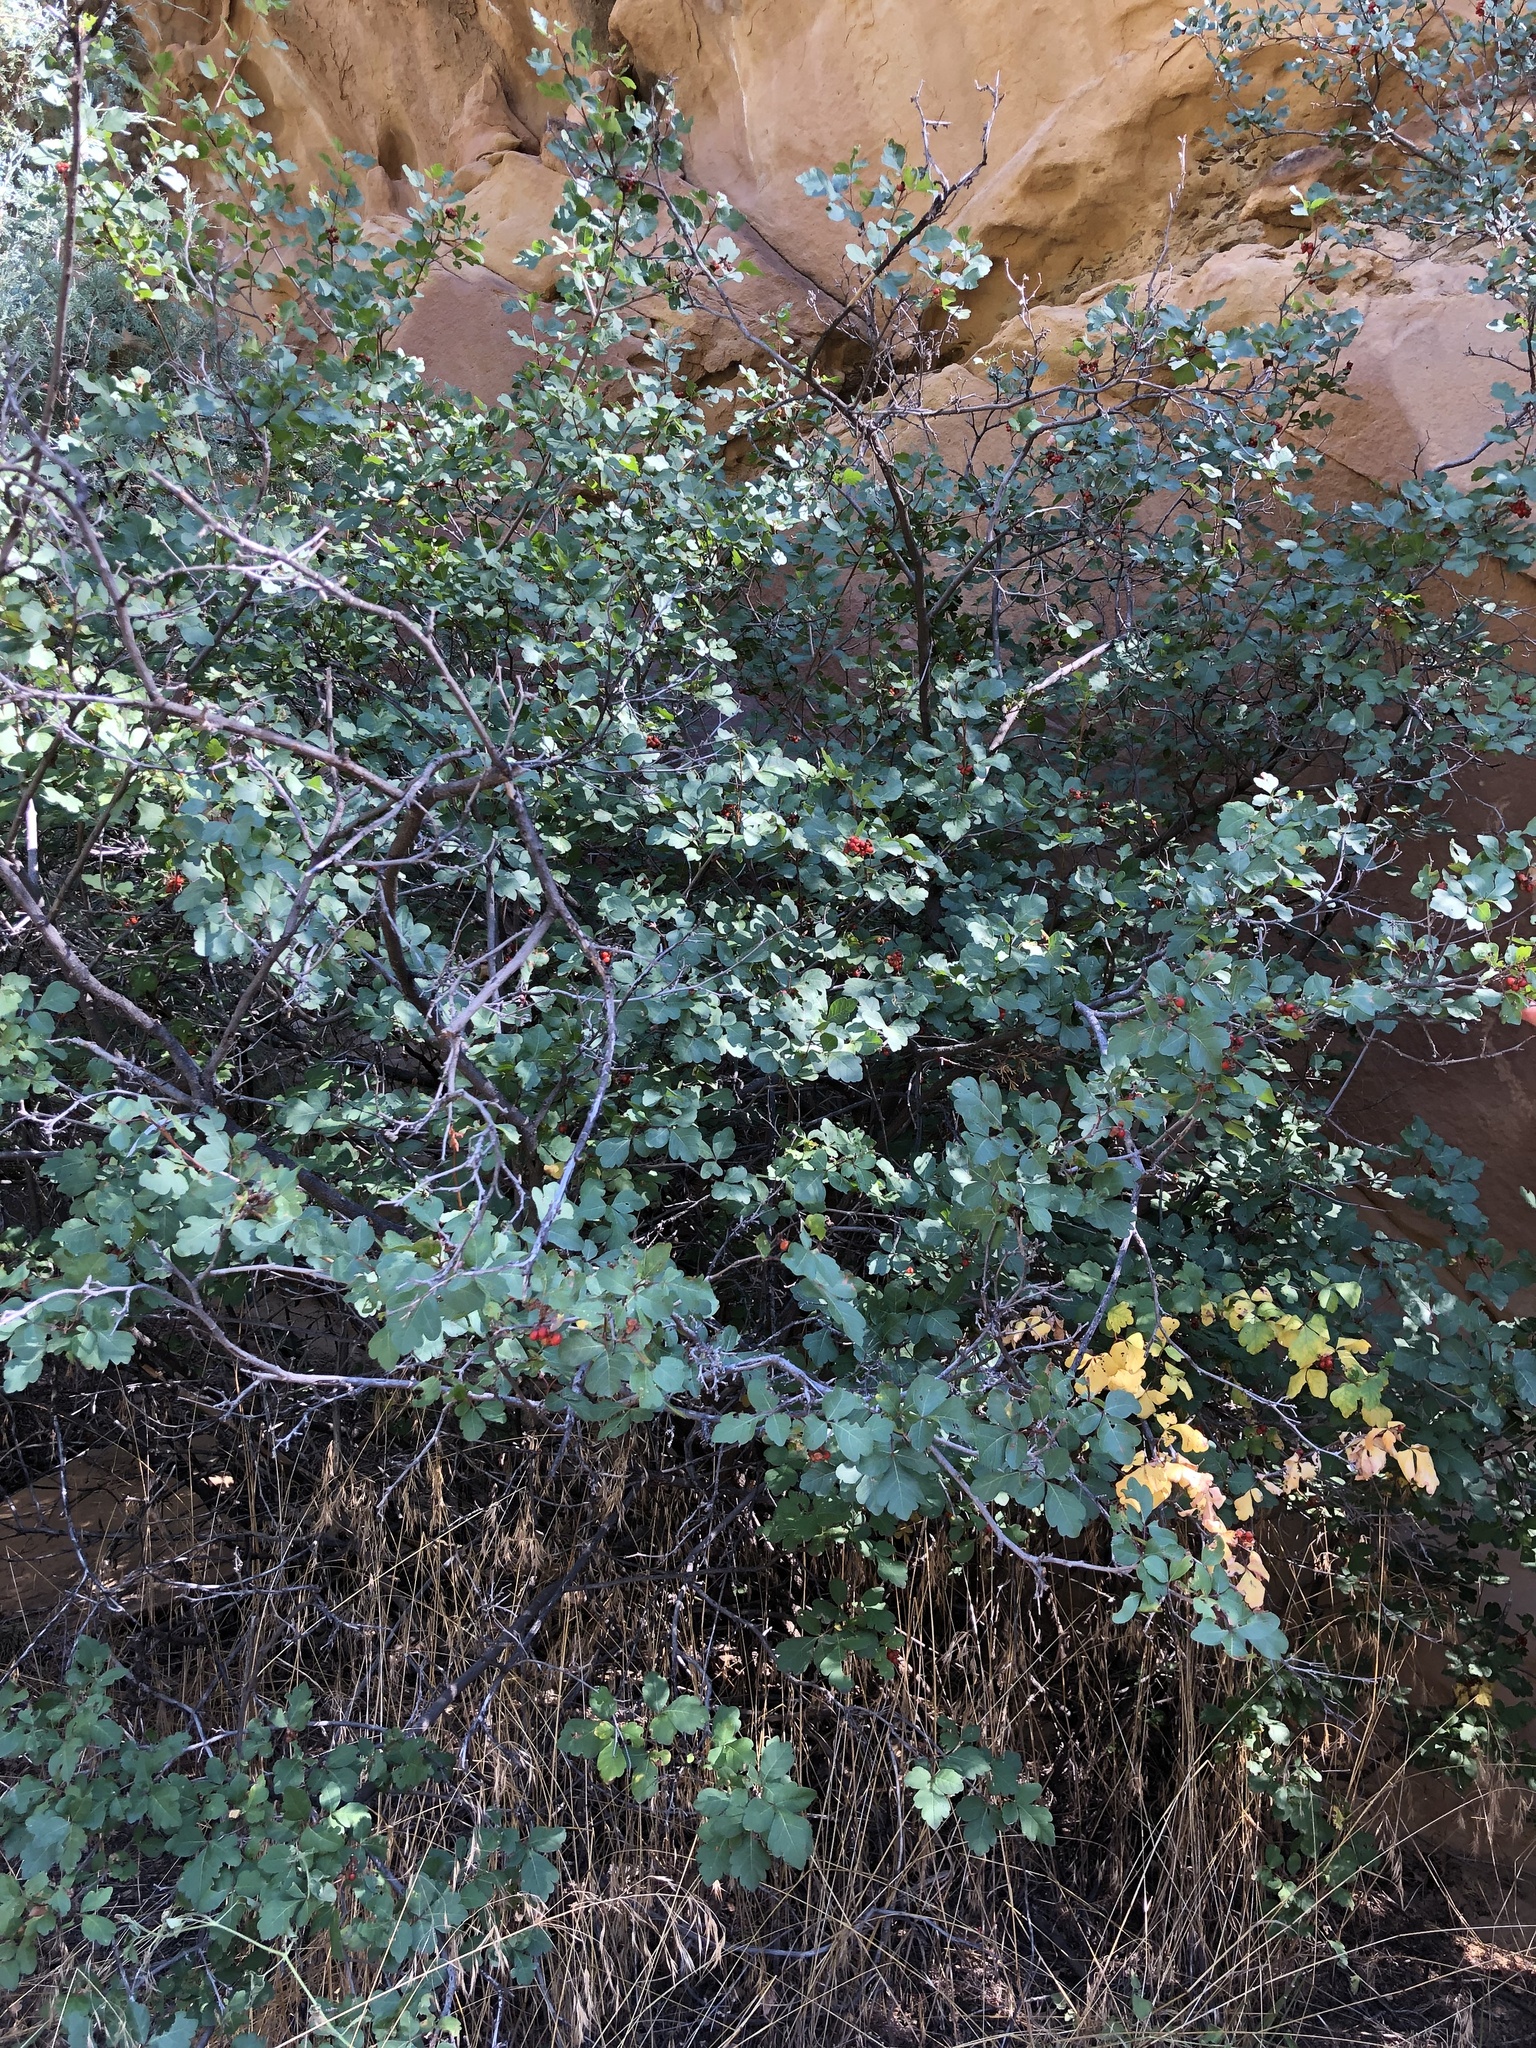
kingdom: Plantae
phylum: Tracheophyta
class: Magnoliopsida
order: Sapindales
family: Anacardiaceae
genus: Rhus
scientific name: Rhus aromatica
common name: Aromatic sumac
